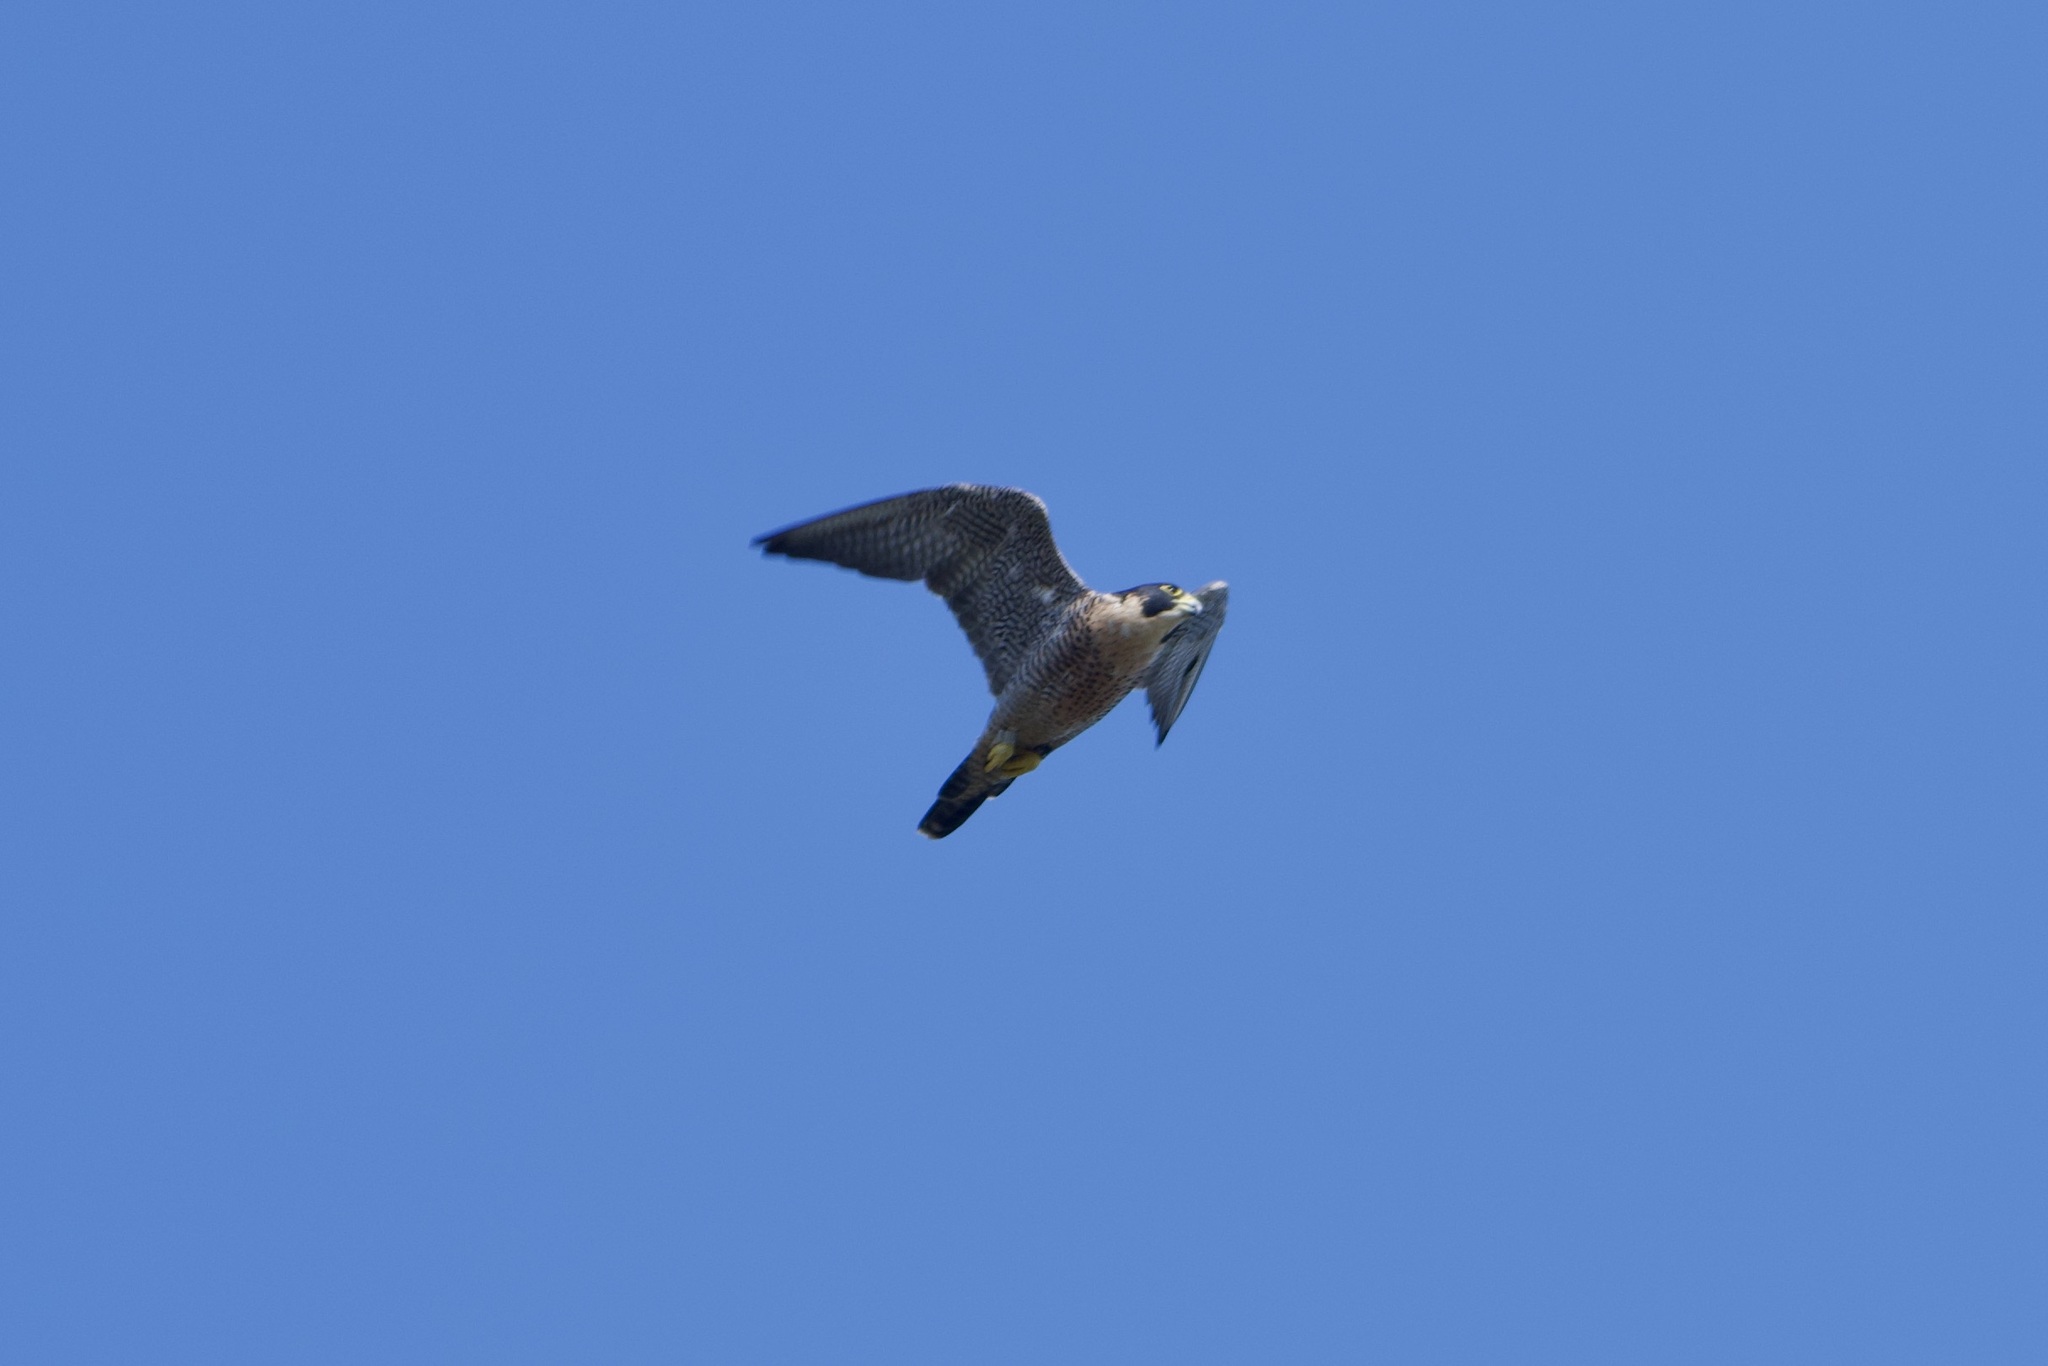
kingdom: Animalia
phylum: Chordata
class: Aves
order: Falconiformes
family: Falconidae
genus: Falco
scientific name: Falco peregrinus
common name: Peregrine falcon
